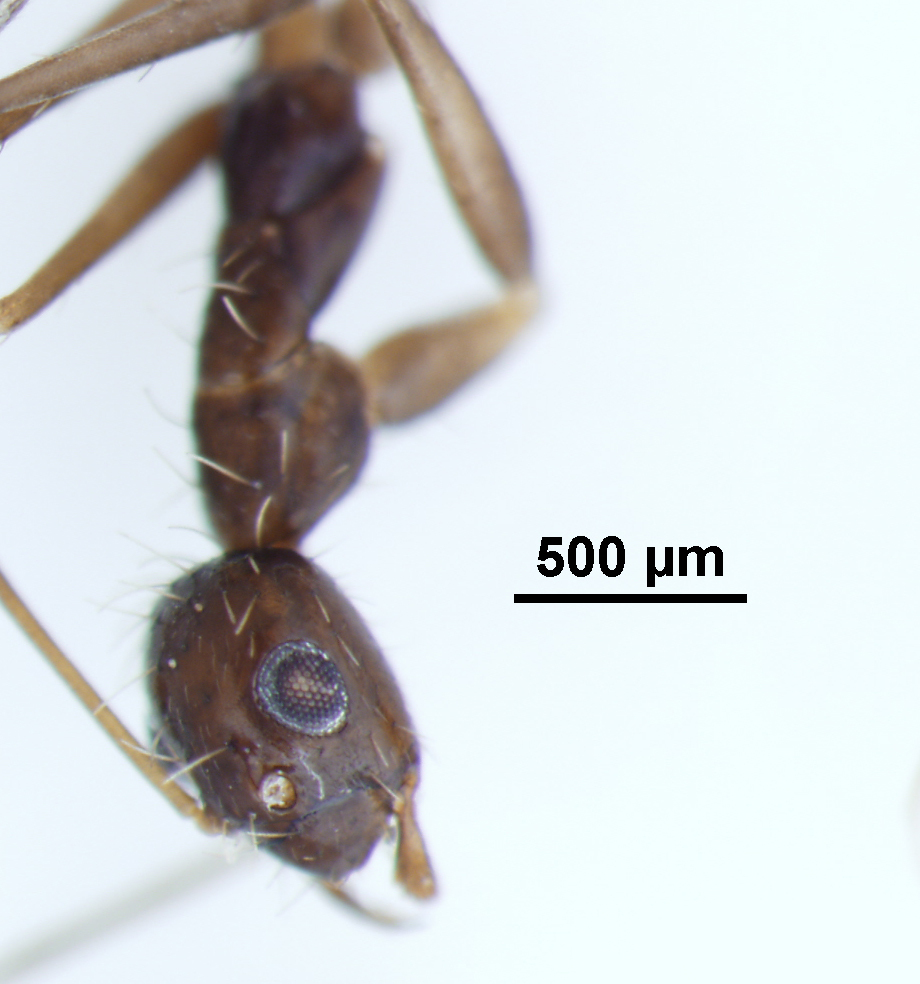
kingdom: Animalia
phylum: Arthropoda
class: Insecta
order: Hymenoptera
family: Formicidae
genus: Paratrechina
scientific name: Paratrechina longicornis
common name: Longhorned crazy ant
